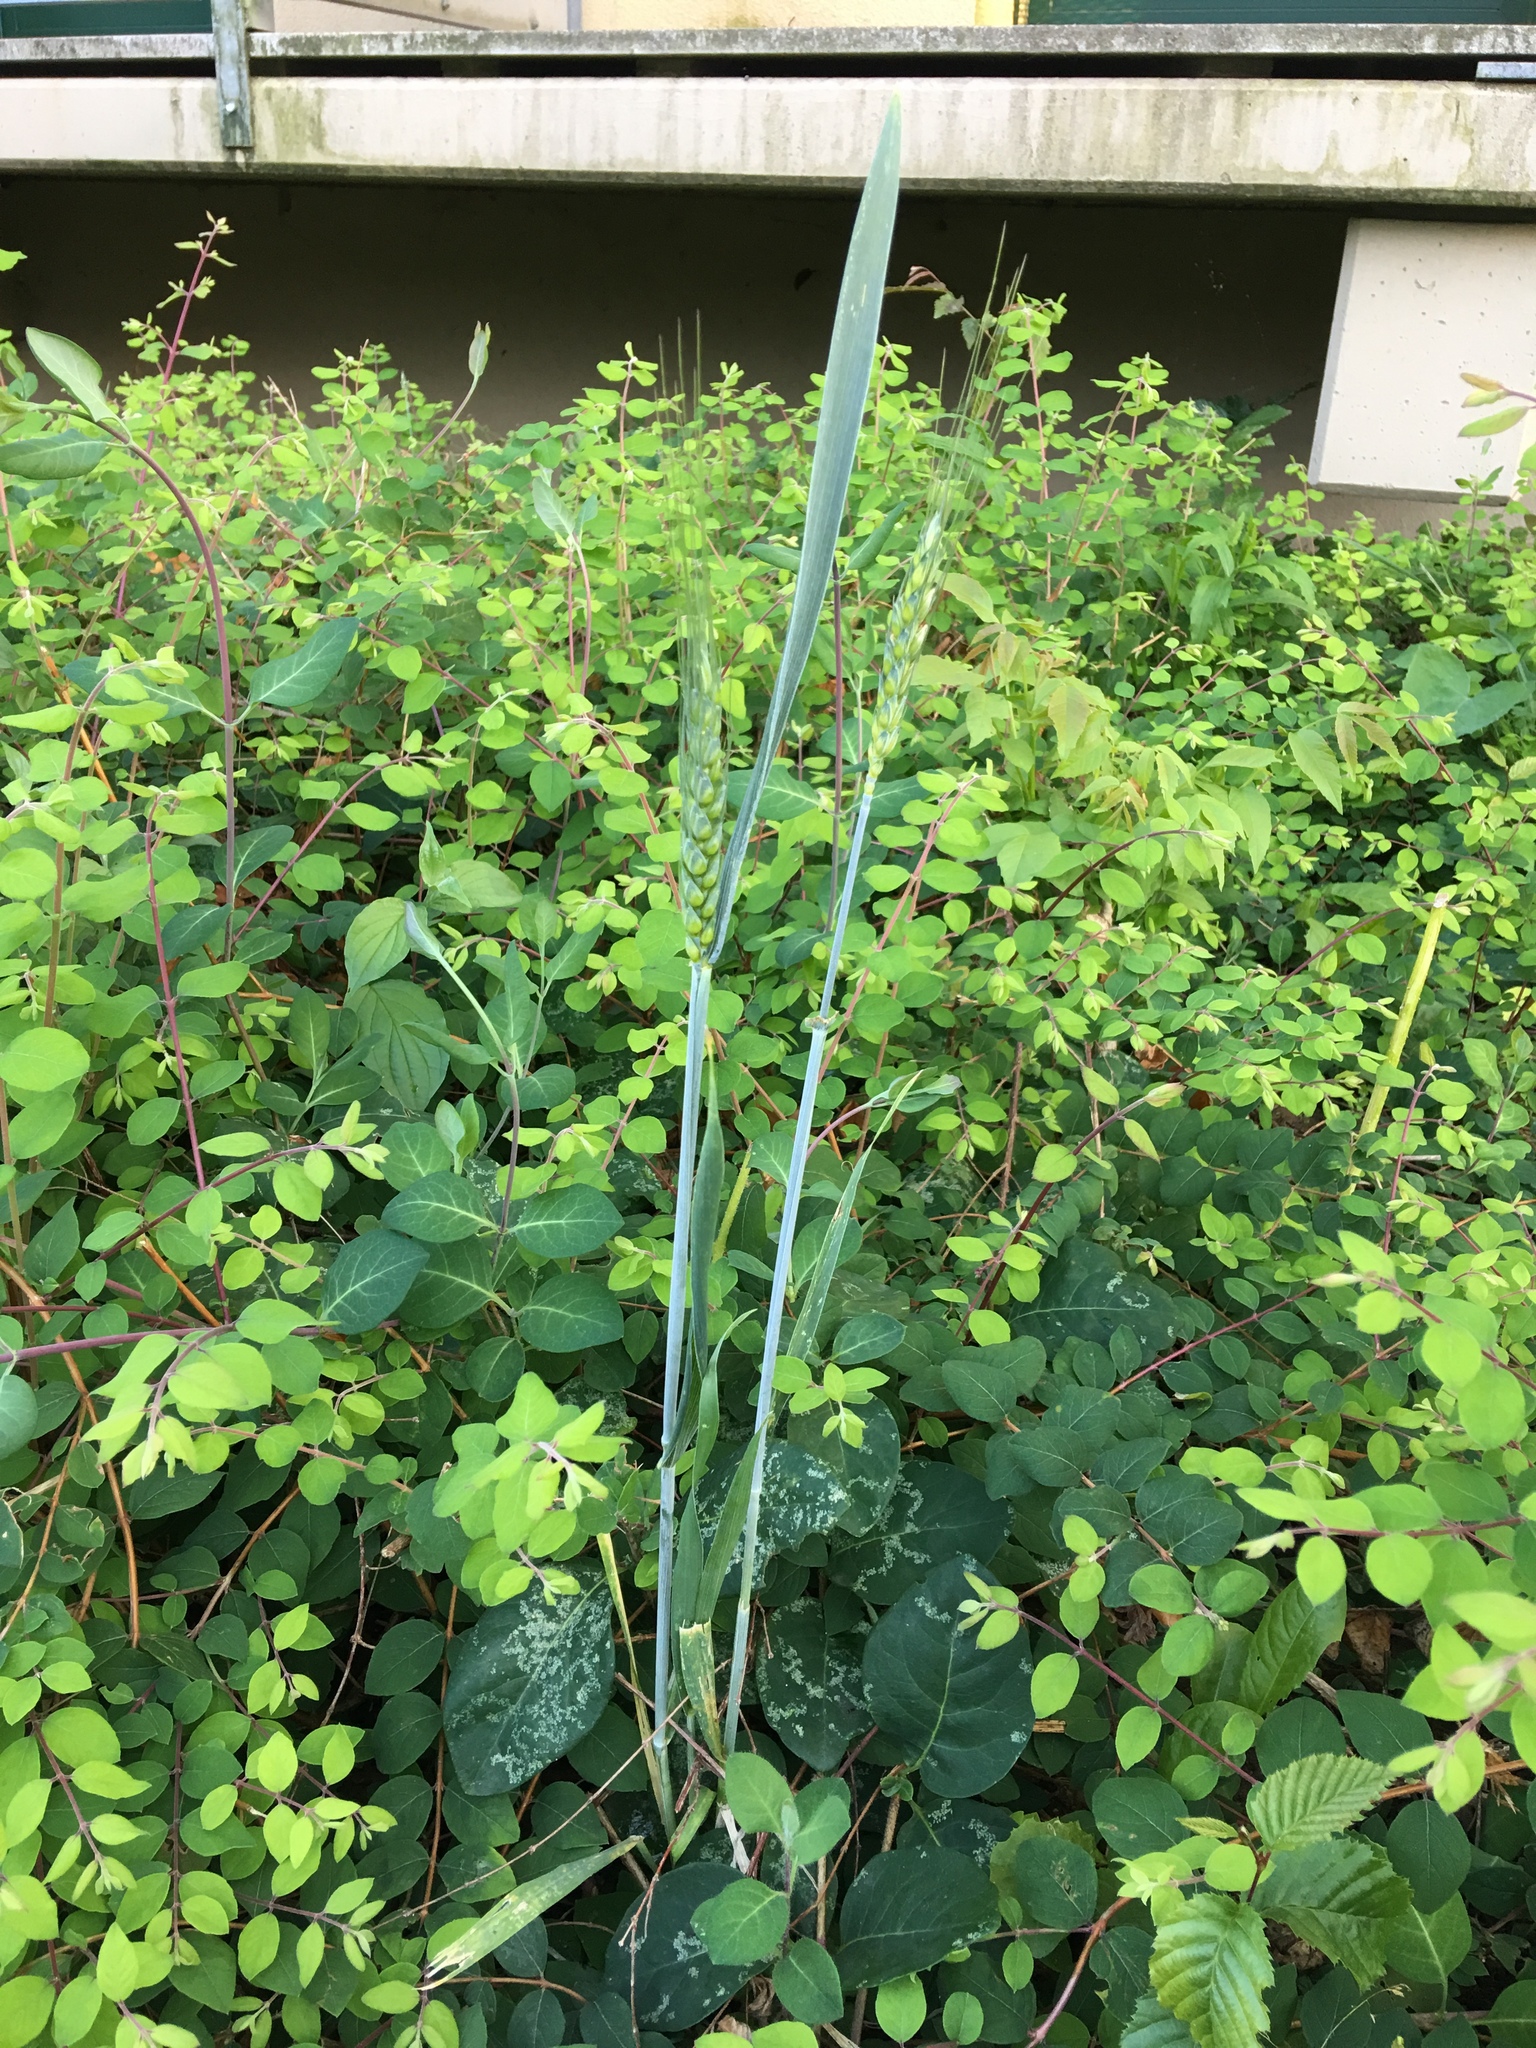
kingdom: Plantae
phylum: Tracheophyta
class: Liliopsida
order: Poales
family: Poaceae
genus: Triticum
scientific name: Triticum aestivum
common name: Common wheat
